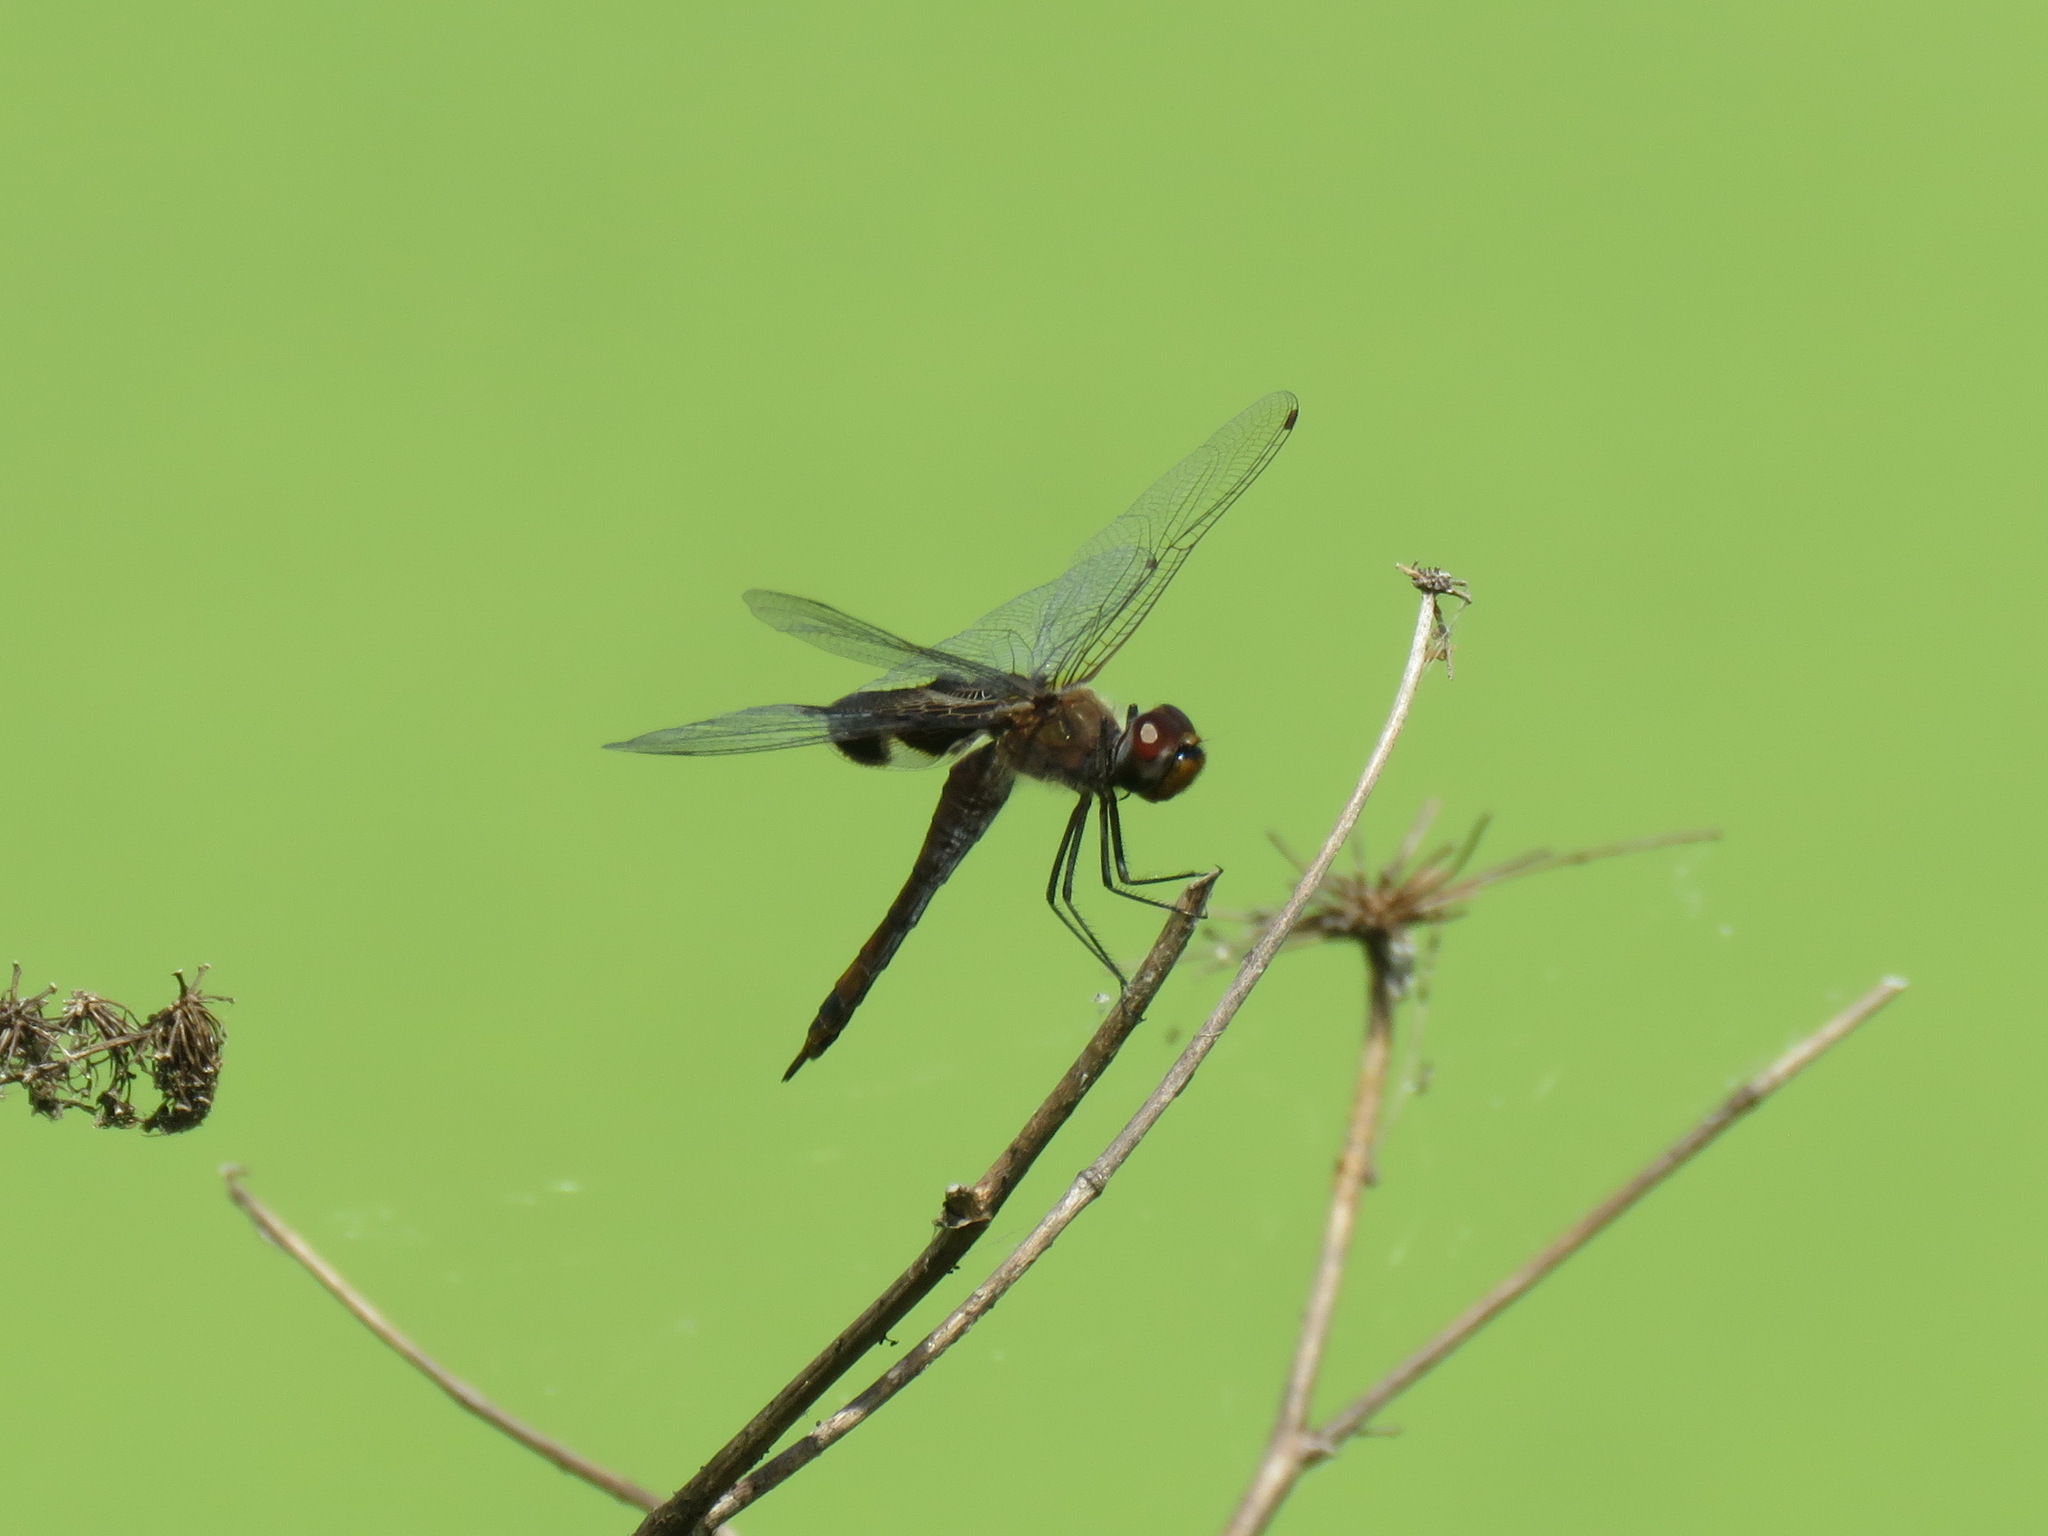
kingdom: Animalia
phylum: Arthropoda
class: Insecta
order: Odonata
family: Libellulidae
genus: Tramea
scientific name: Tramea lacerata
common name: Black saddlebags
